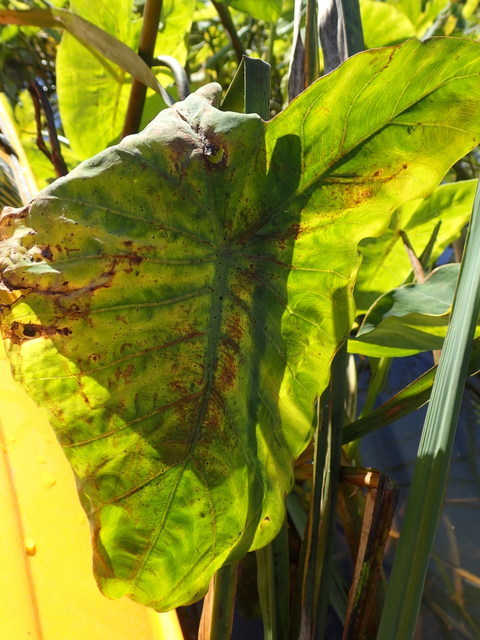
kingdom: Animalia
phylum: Arthropoda
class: Insecta
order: Hemiptera
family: Delphacidae
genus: Tarophagus
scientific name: Tarophagus colocasiae
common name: Taro planthopper
